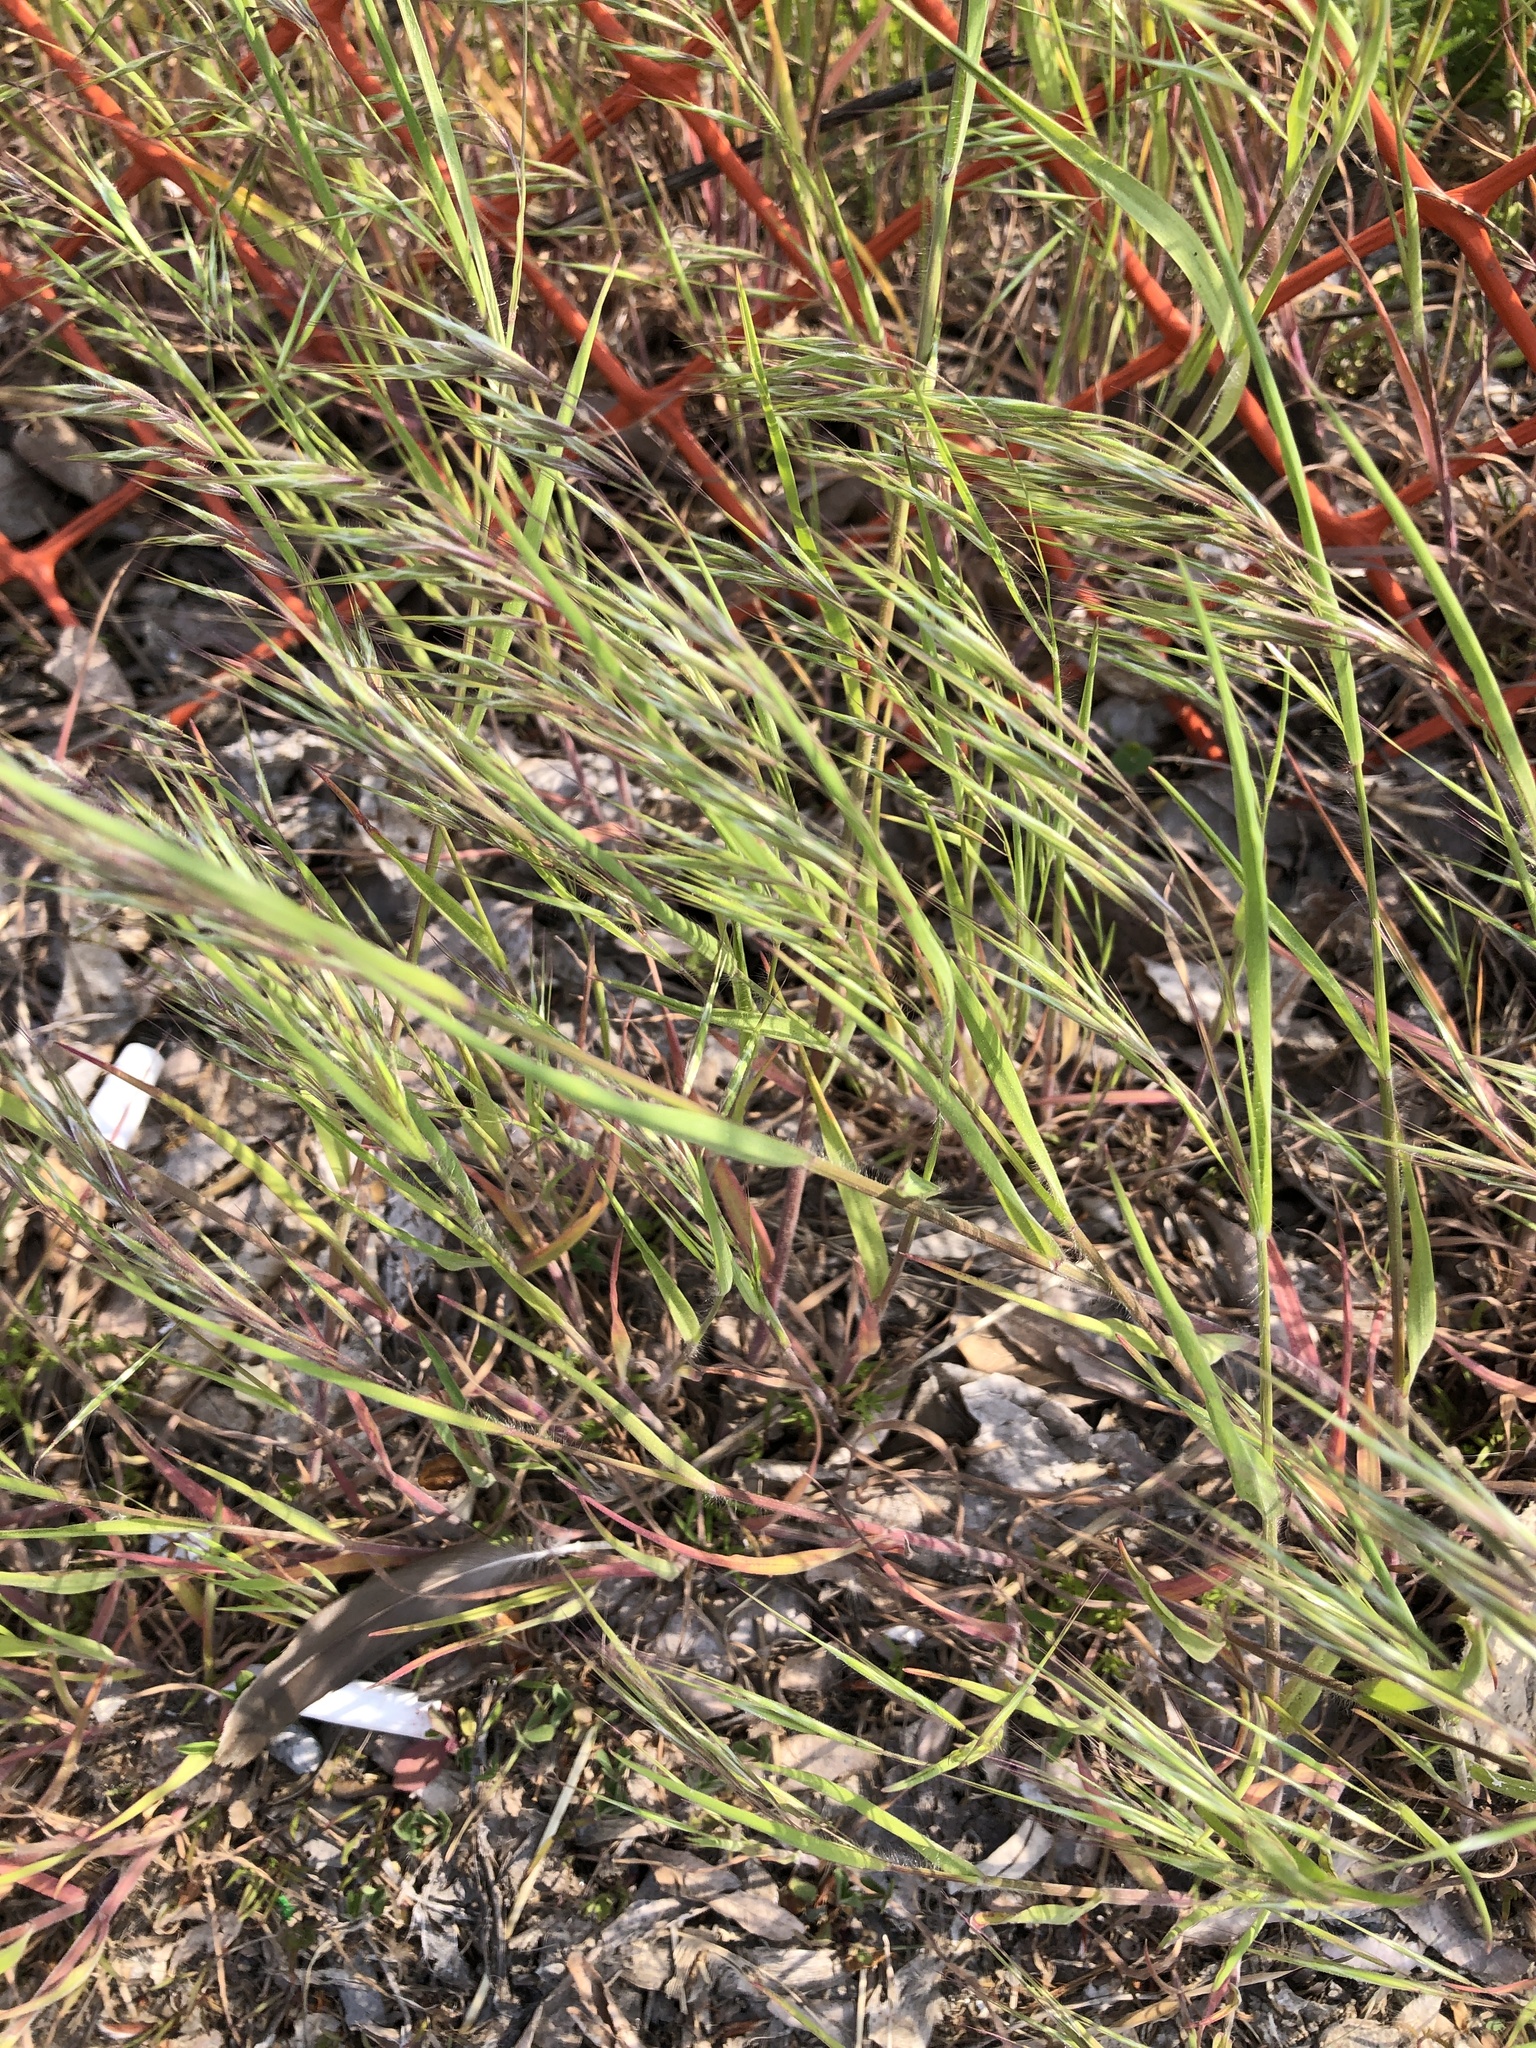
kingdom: Plantae
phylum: Tracheophyta
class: Liliopsida
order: Poales
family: Poaceae
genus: Bromus
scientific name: Bromus tectorum
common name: Cheatgrass
